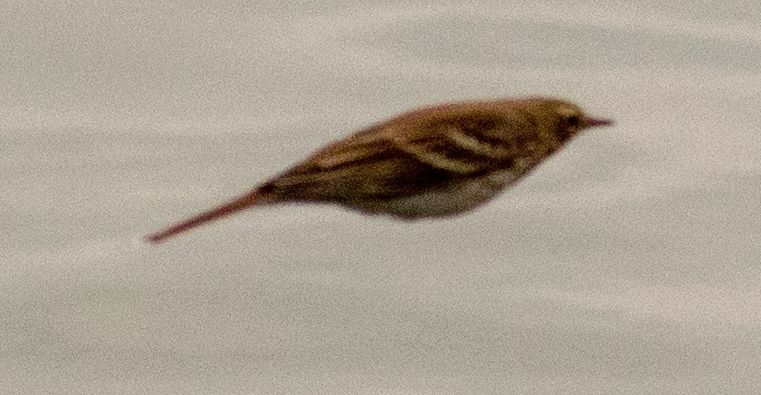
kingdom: Animalia
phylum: Chordata
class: Aves
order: Passeriformes
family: Motacillidae
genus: Anthus
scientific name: Anthus spinoletta
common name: Water pipit
